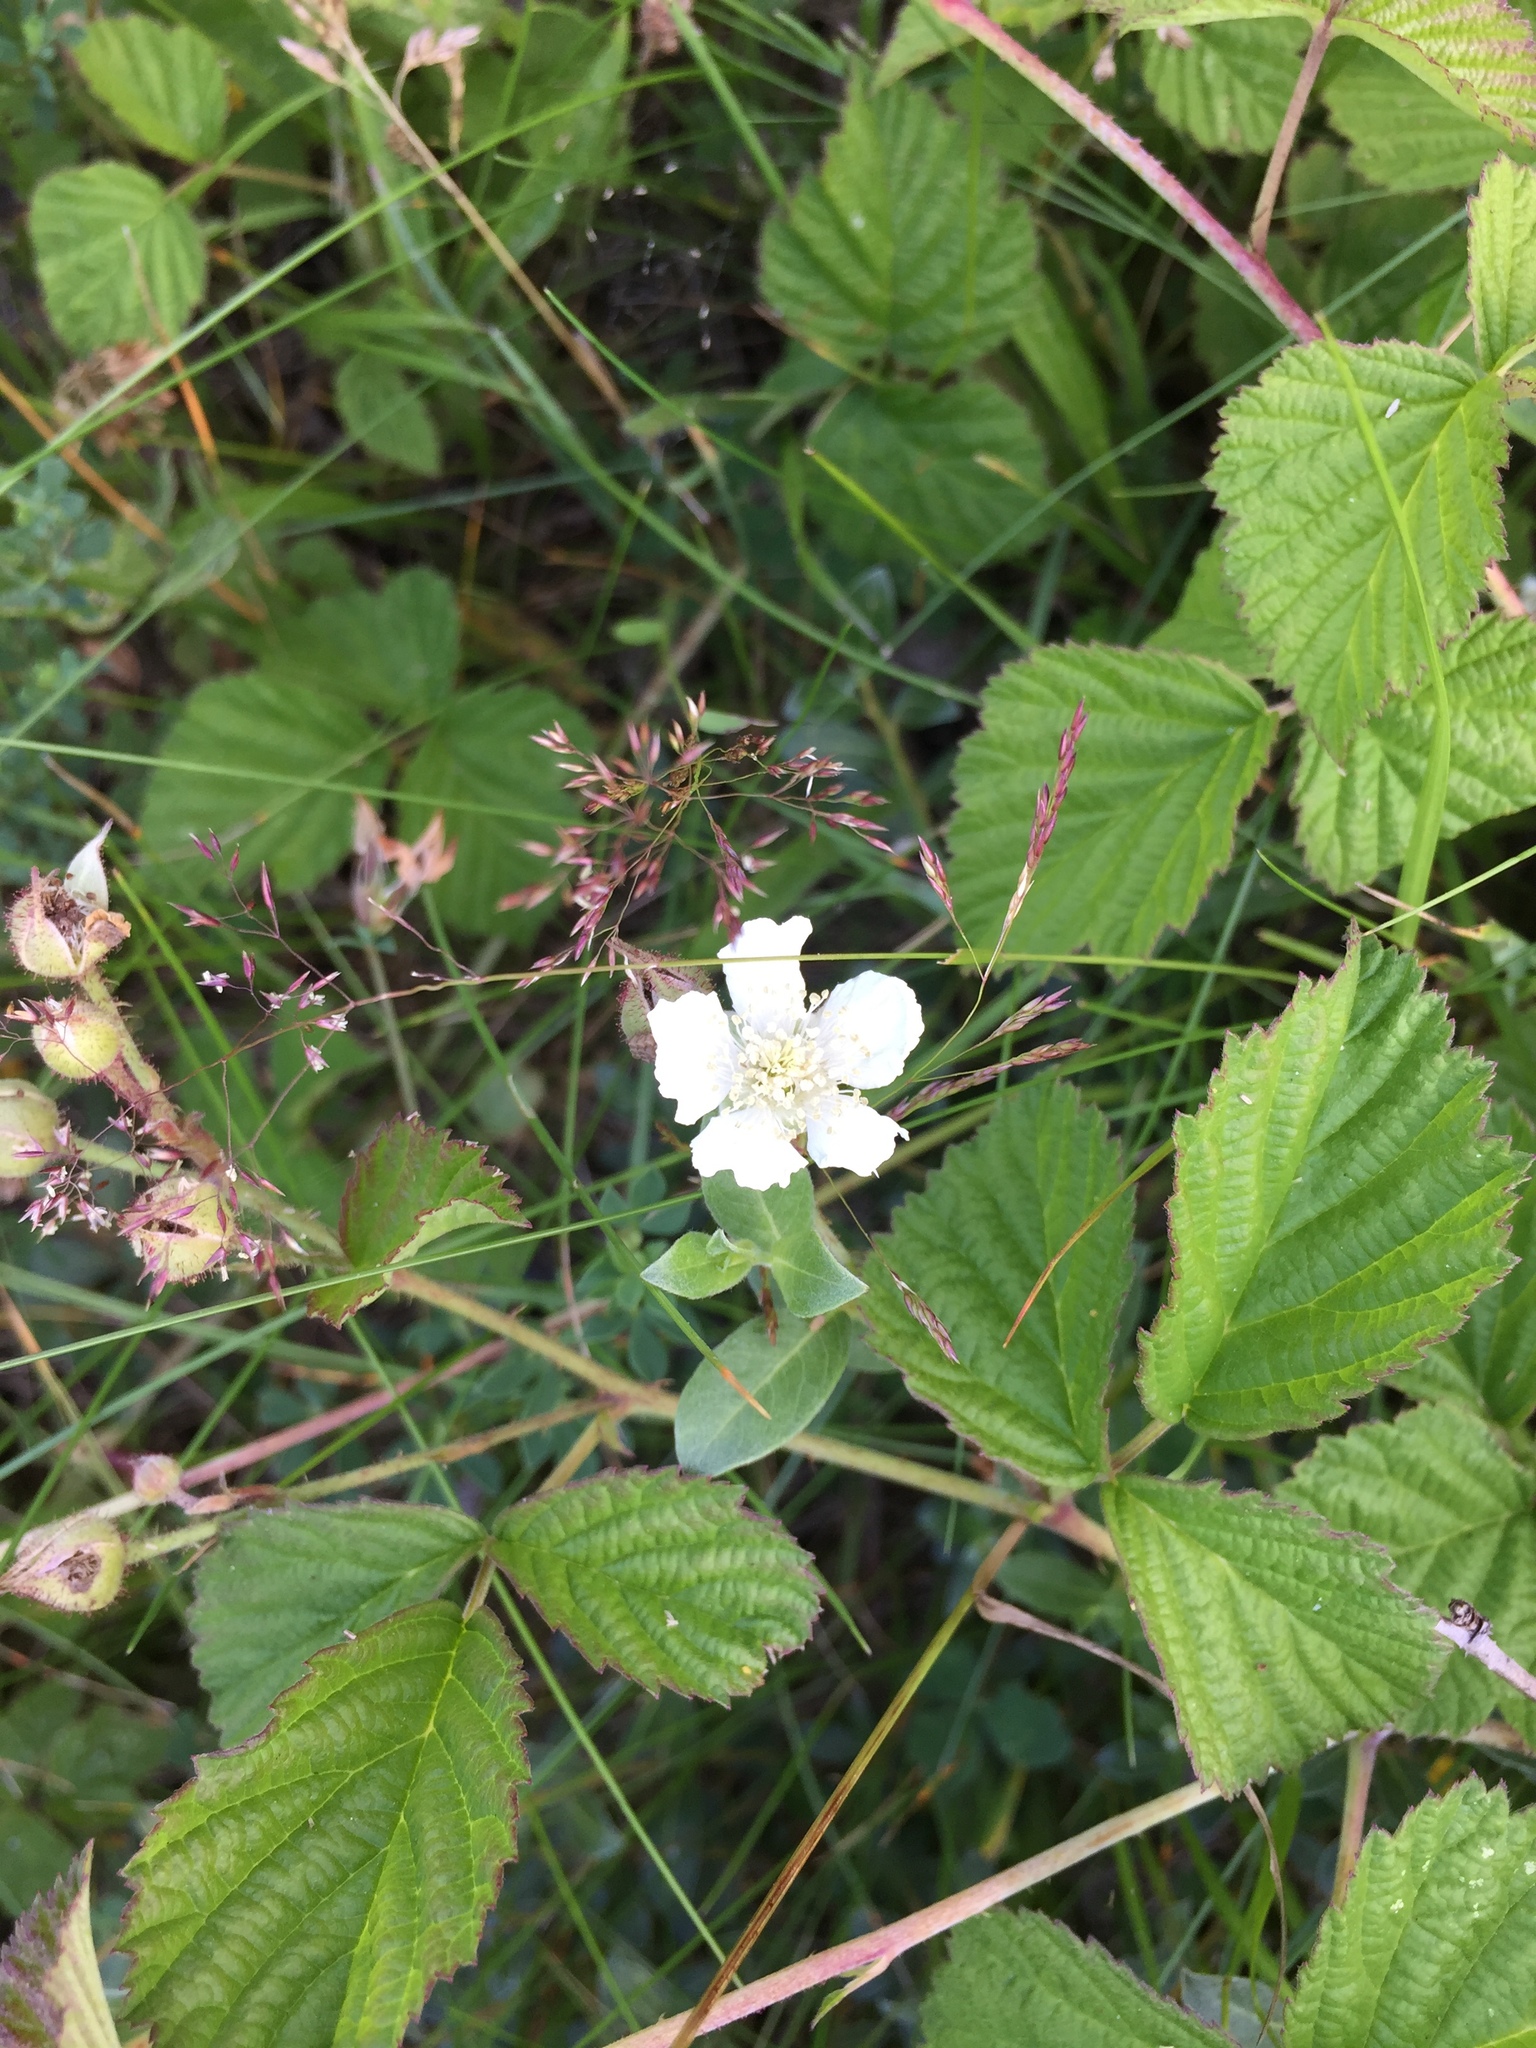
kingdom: Plantae
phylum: Tracheophyta
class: Magnoliopsida
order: Rosales
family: Rosaceae
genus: Rubus
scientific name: Rubus caesius
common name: Dewberry
